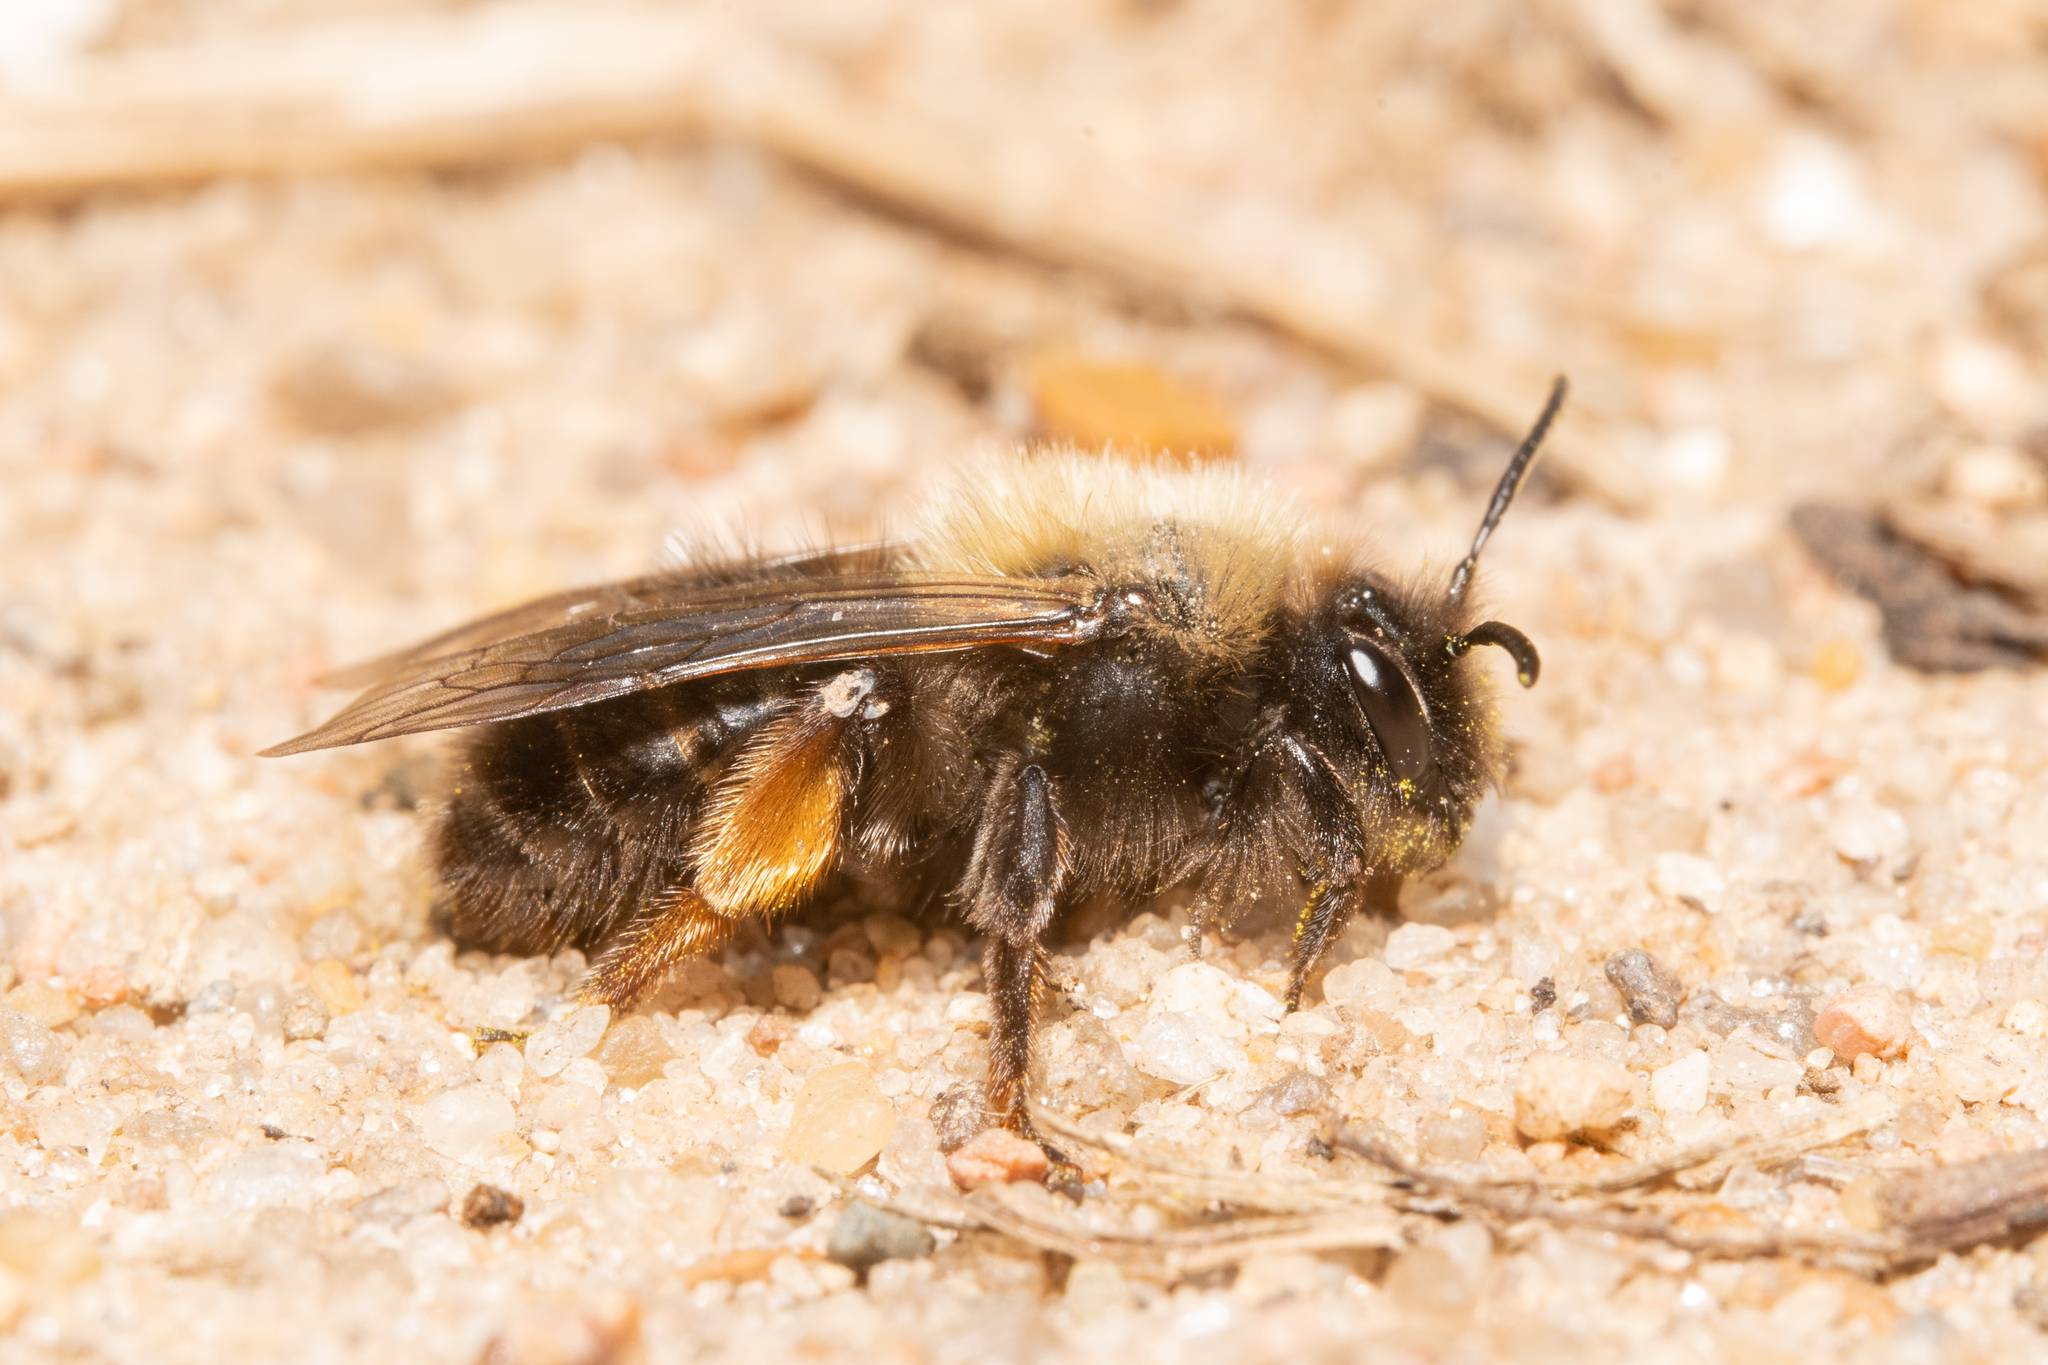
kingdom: Animalia
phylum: Arthropoda
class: Insecta
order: Hymenoptera
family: Andrenidae
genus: Andrena
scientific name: Andrena clarkella
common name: Clarke's mining bee
